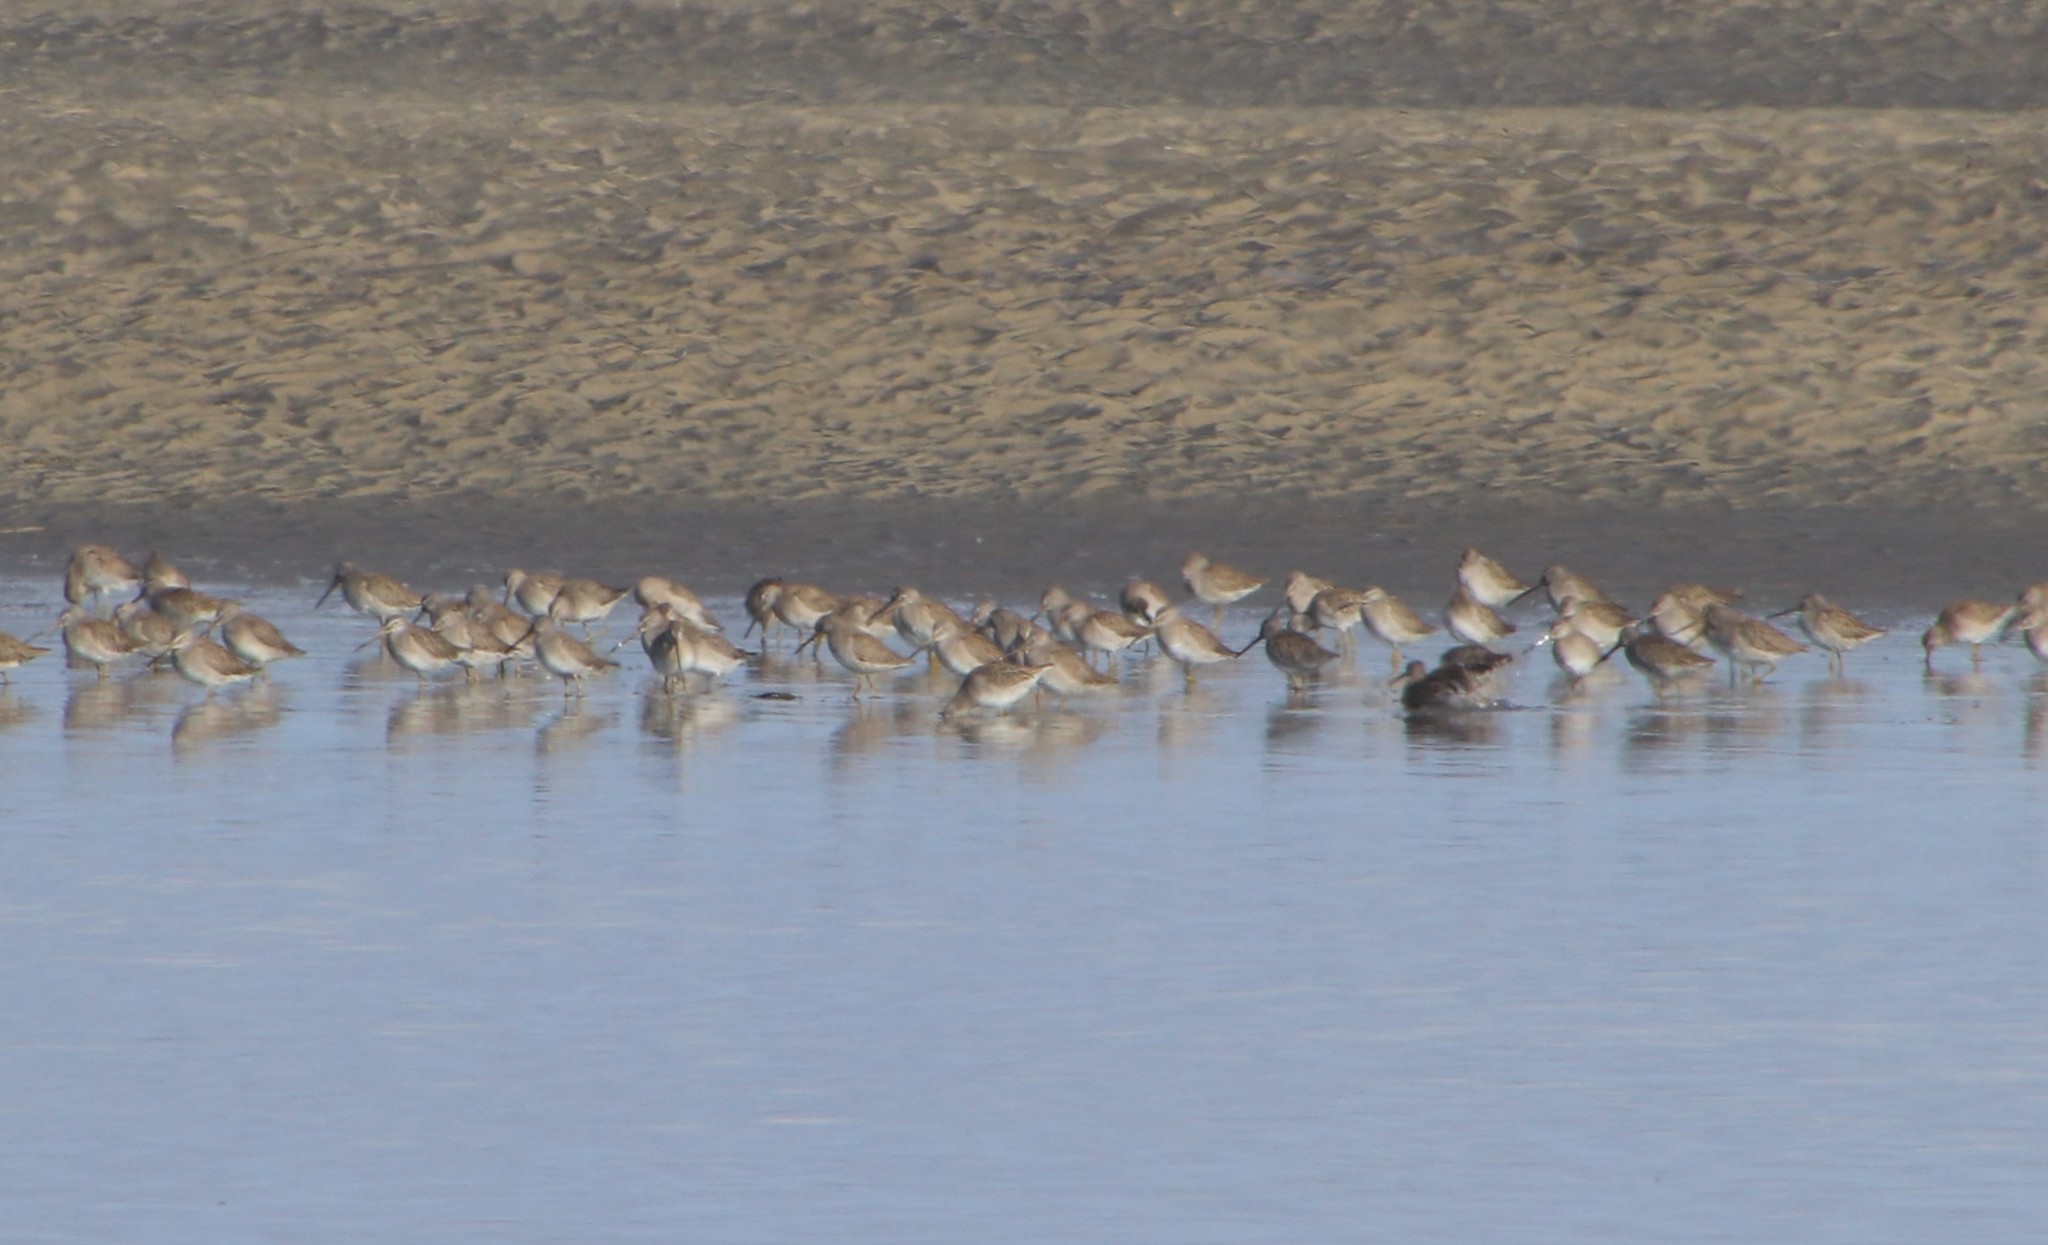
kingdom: Animalia
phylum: Chordata
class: Aves
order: Charadriiformes
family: Scolopacidae
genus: Limnodromus
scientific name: Limnodromus
